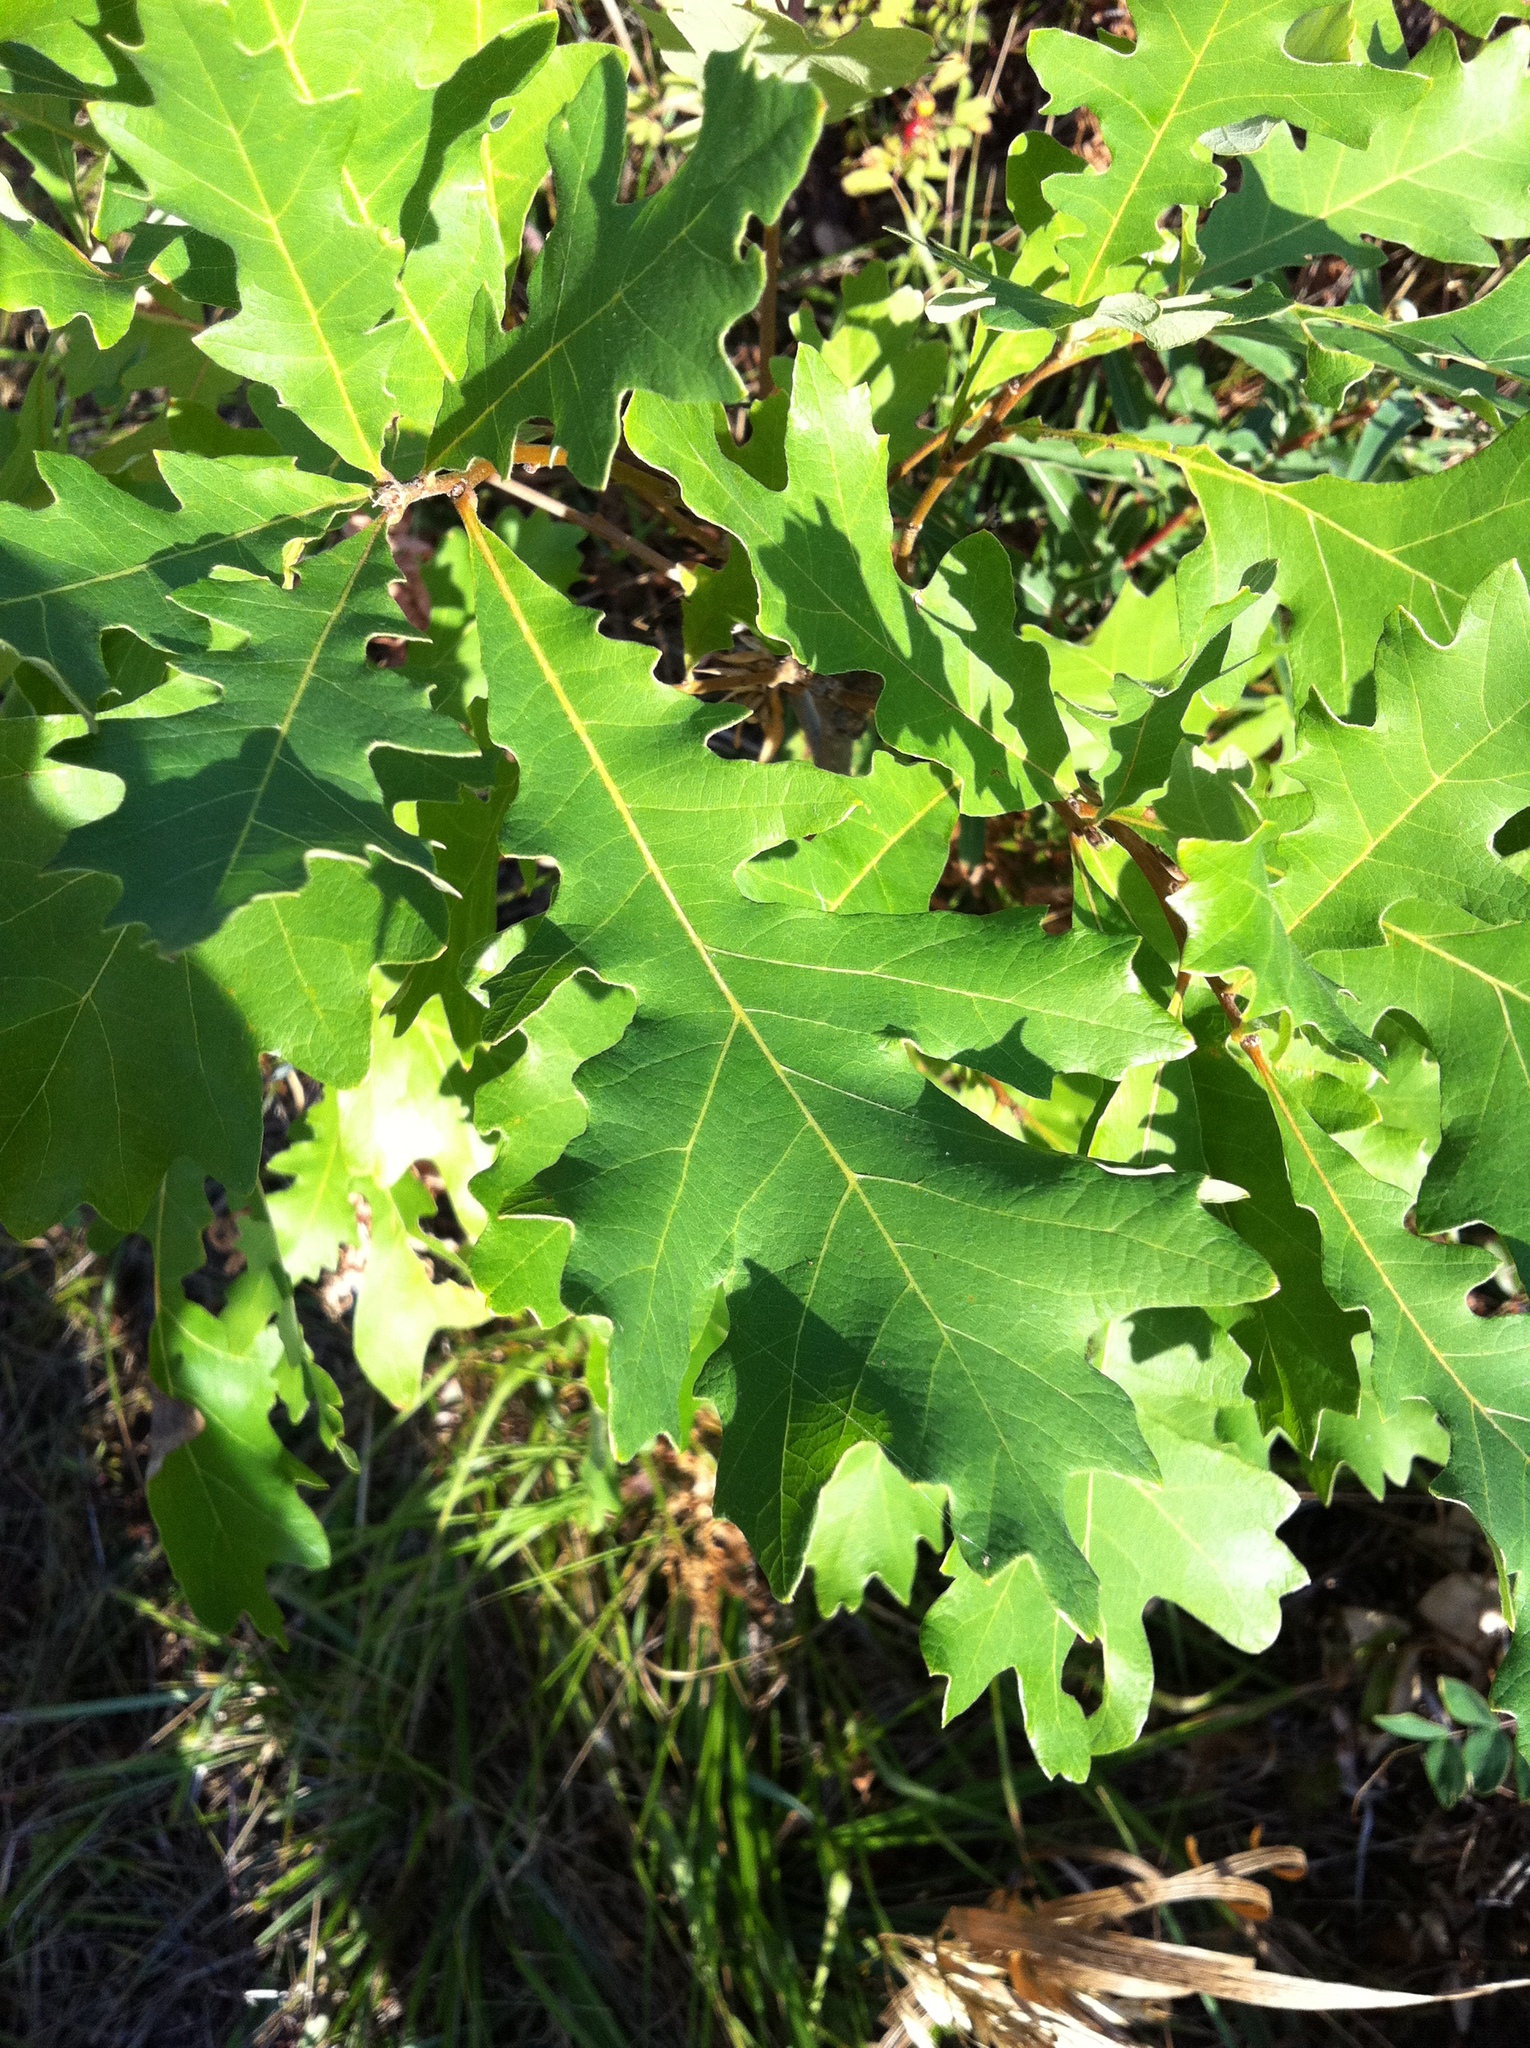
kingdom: Plantae
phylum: Tracheophyta
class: Magnoliopsida
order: Fagales
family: Fagaceae
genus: Quercus
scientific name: Quercus macrocarpa
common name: Bur oak
